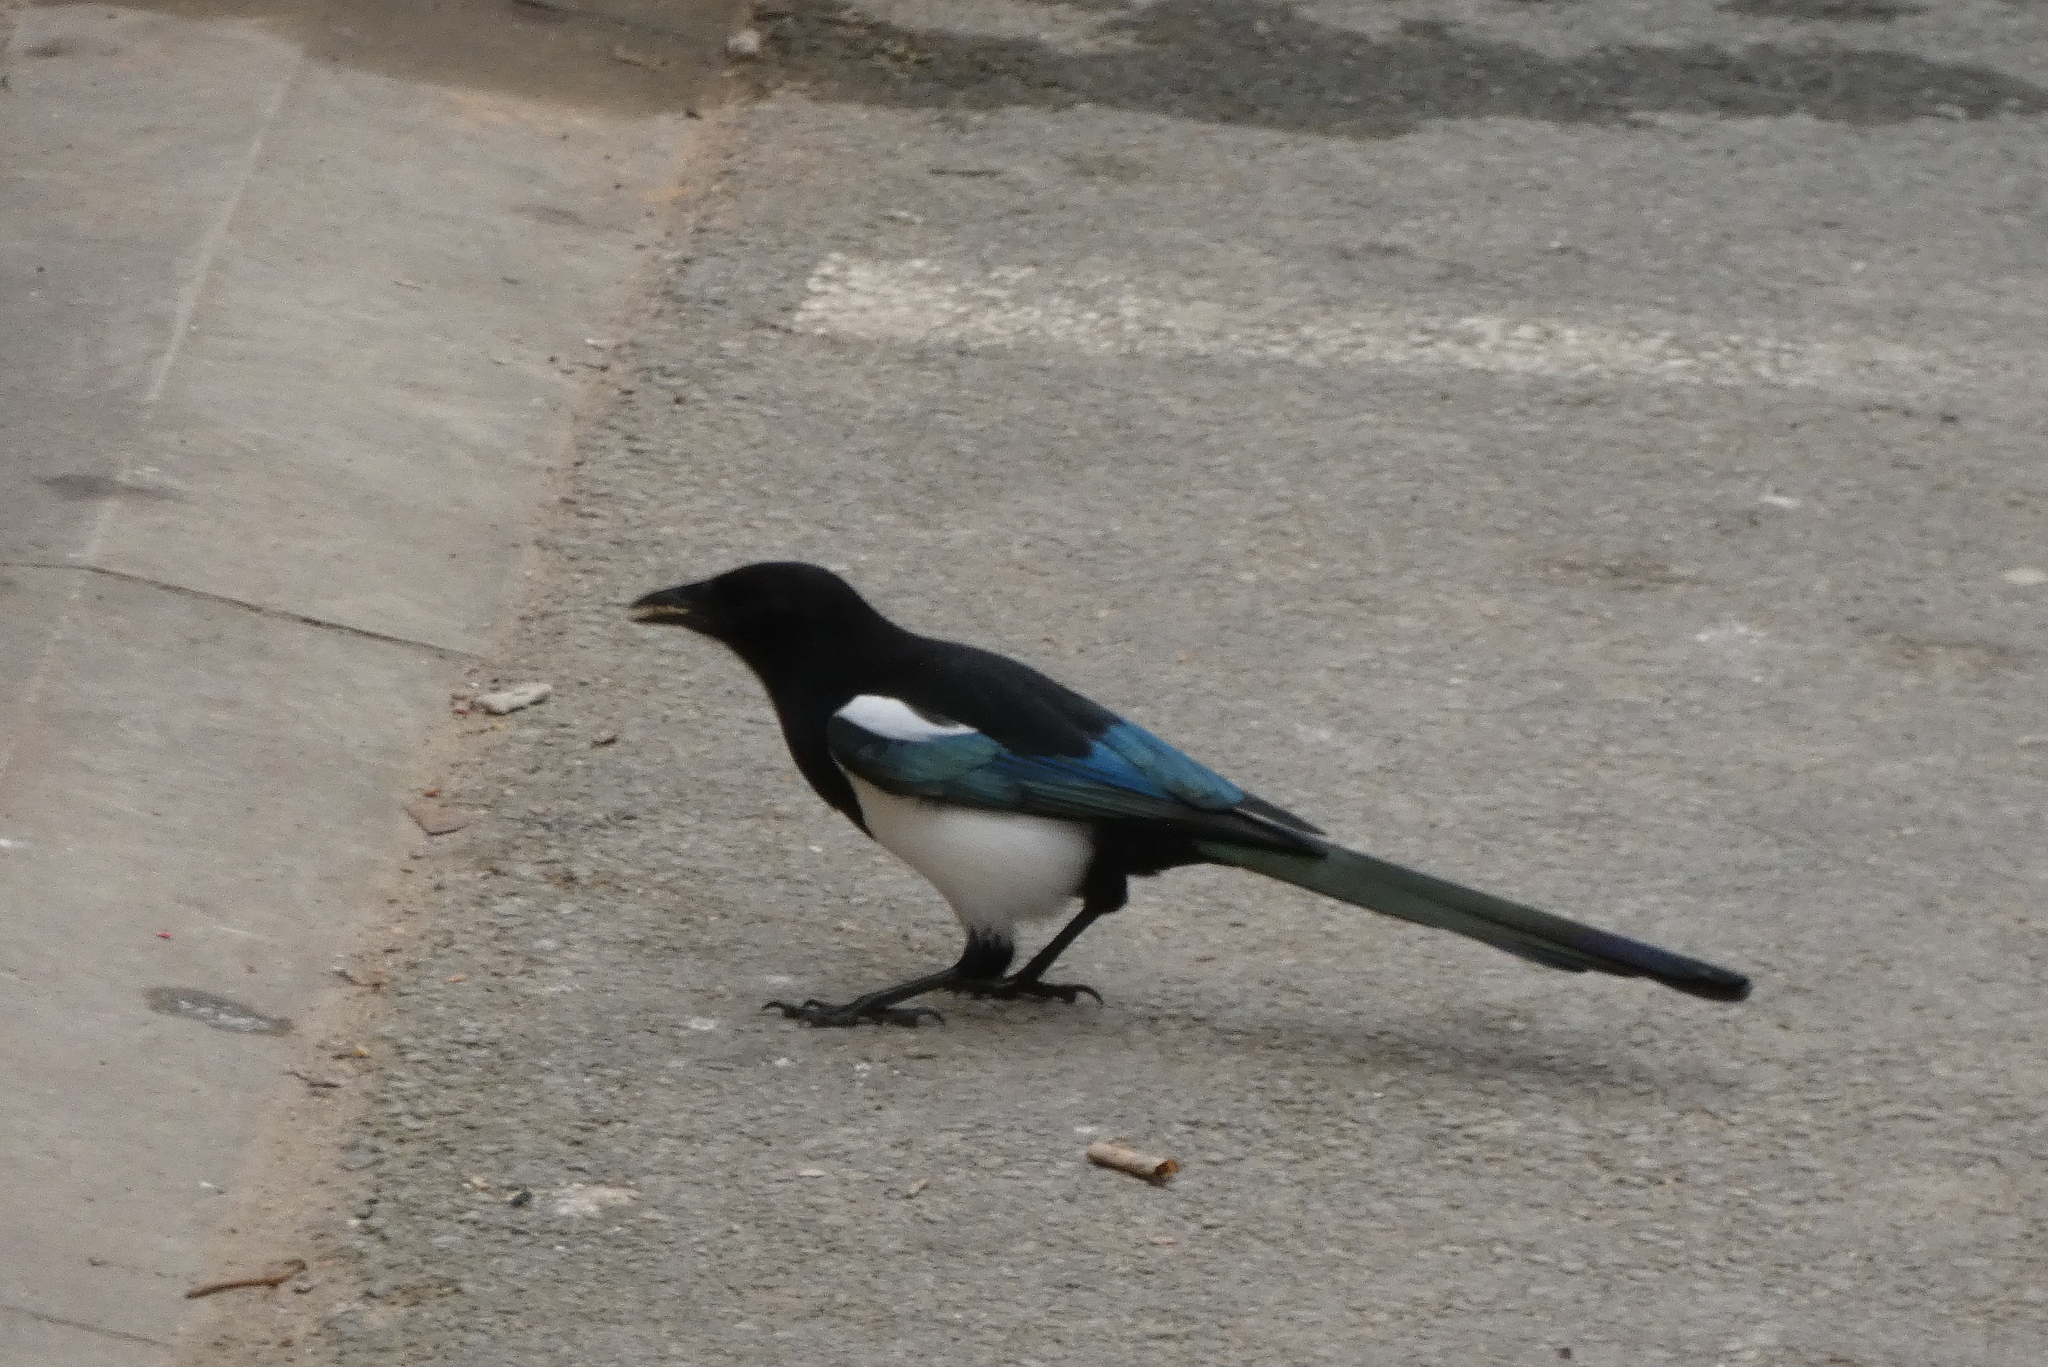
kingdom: Animalia
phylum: Chordata
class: Aves
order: Passeriformes
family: Corvidae
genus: Pica
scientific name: Pica pica
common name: Eurasian magpie
